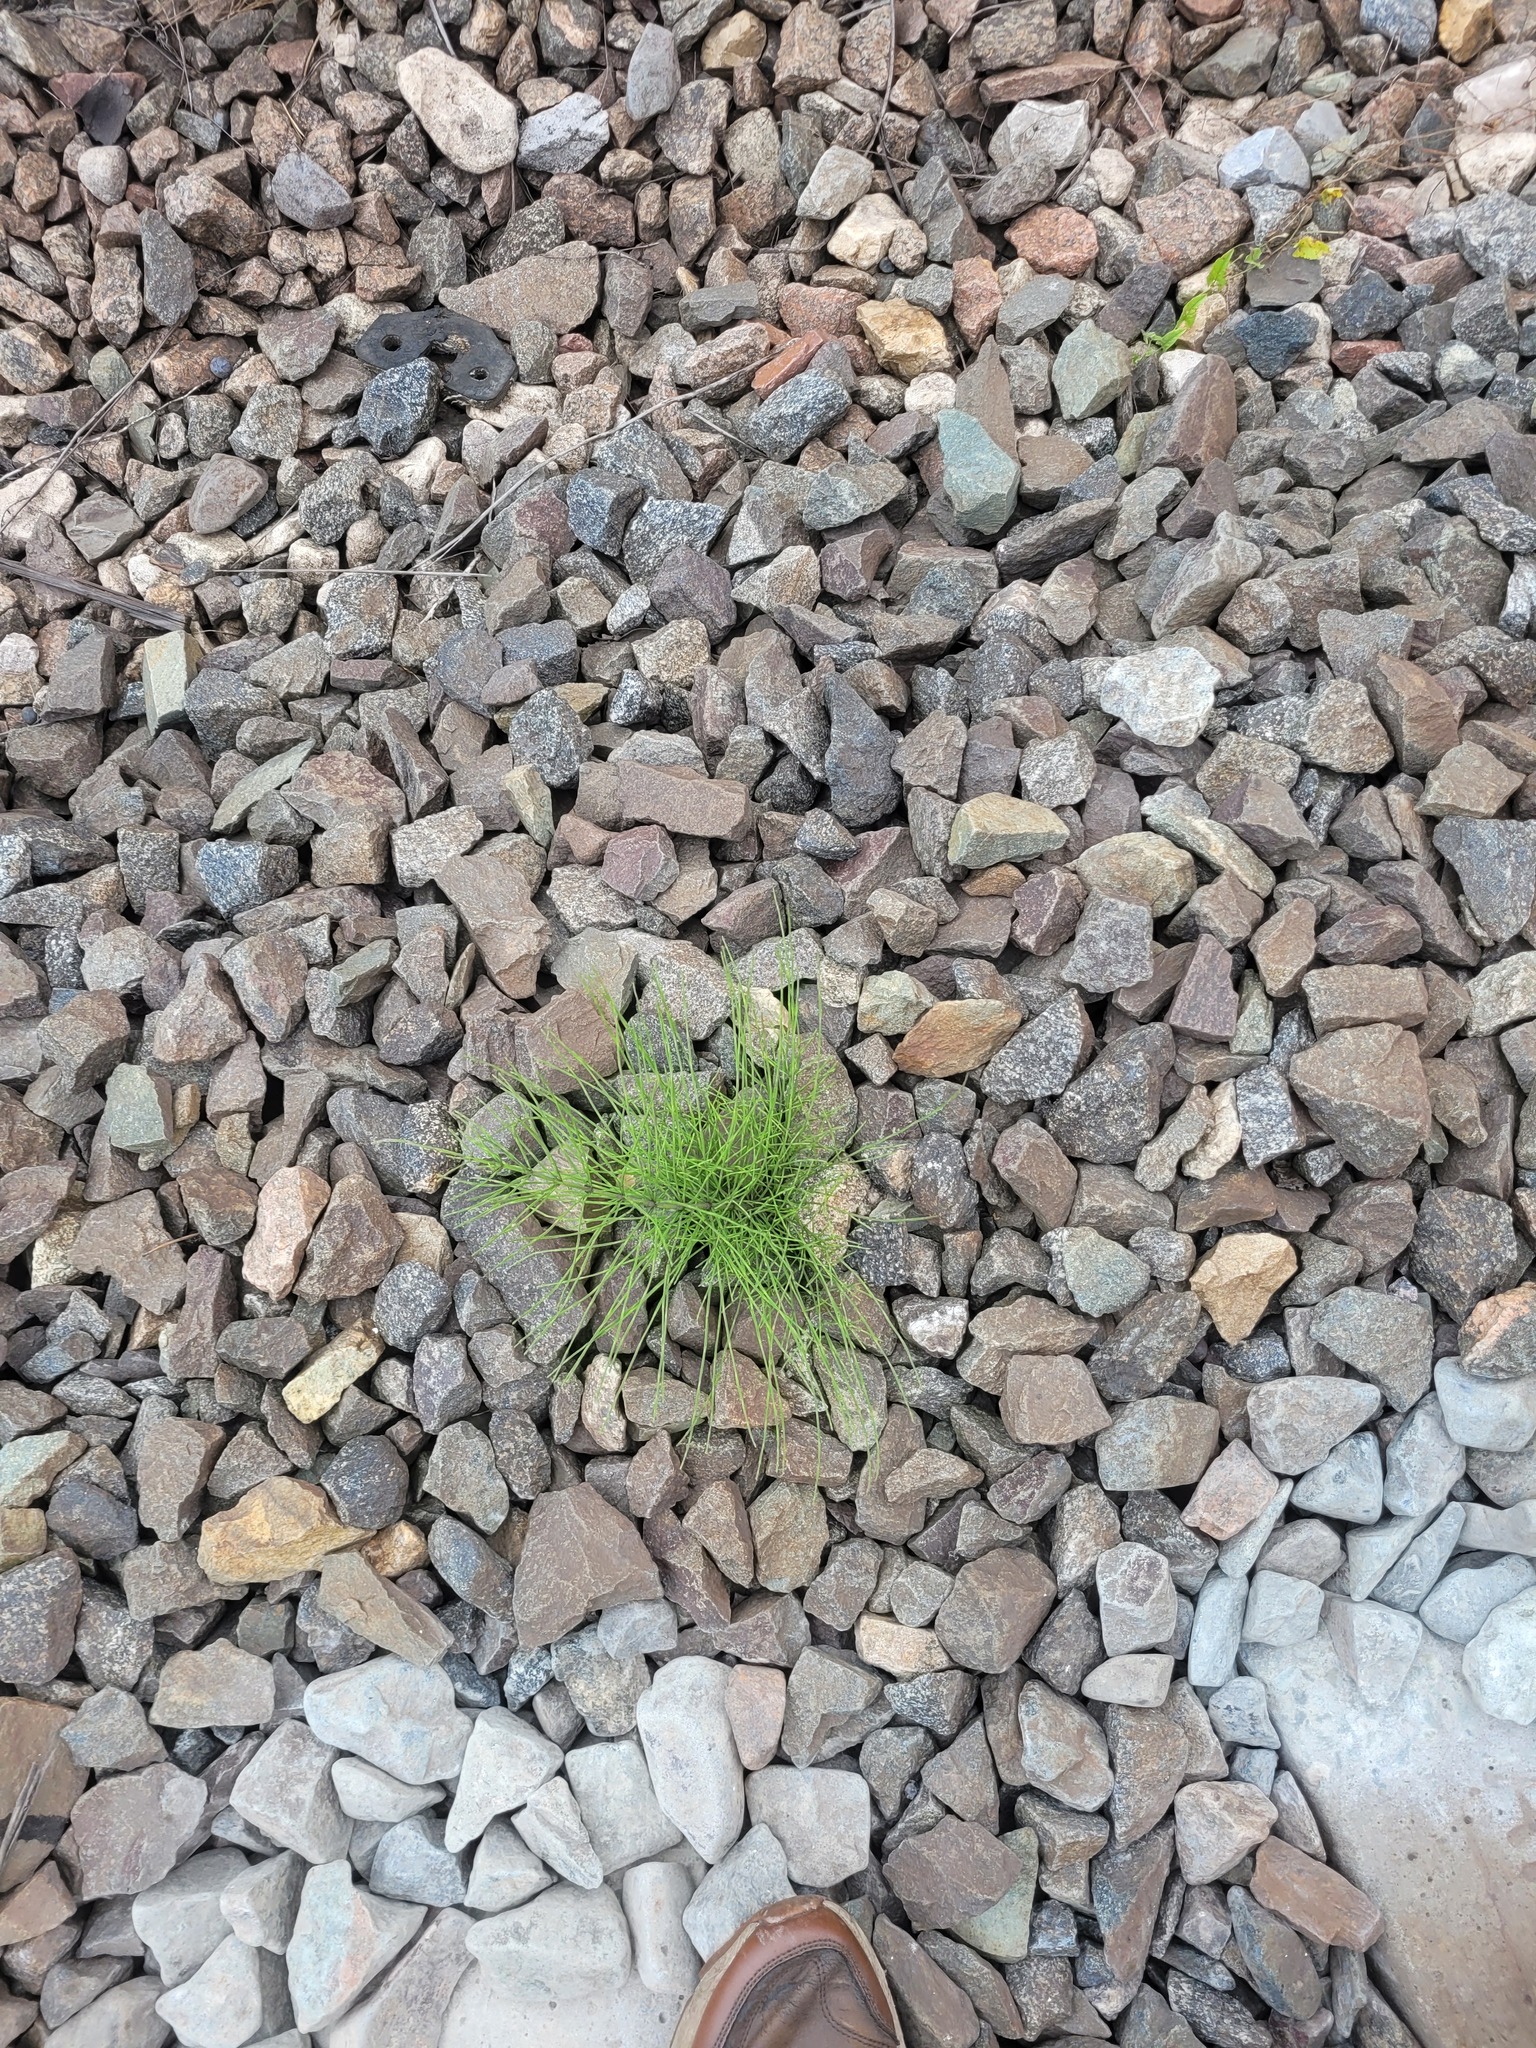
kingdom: Plantae
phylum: Tracheophyta
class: Polypodiopsida
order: Equisetales
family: Equisetaceae
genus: Equisetum
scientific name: Equisetum arvense
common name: Field horsetail
